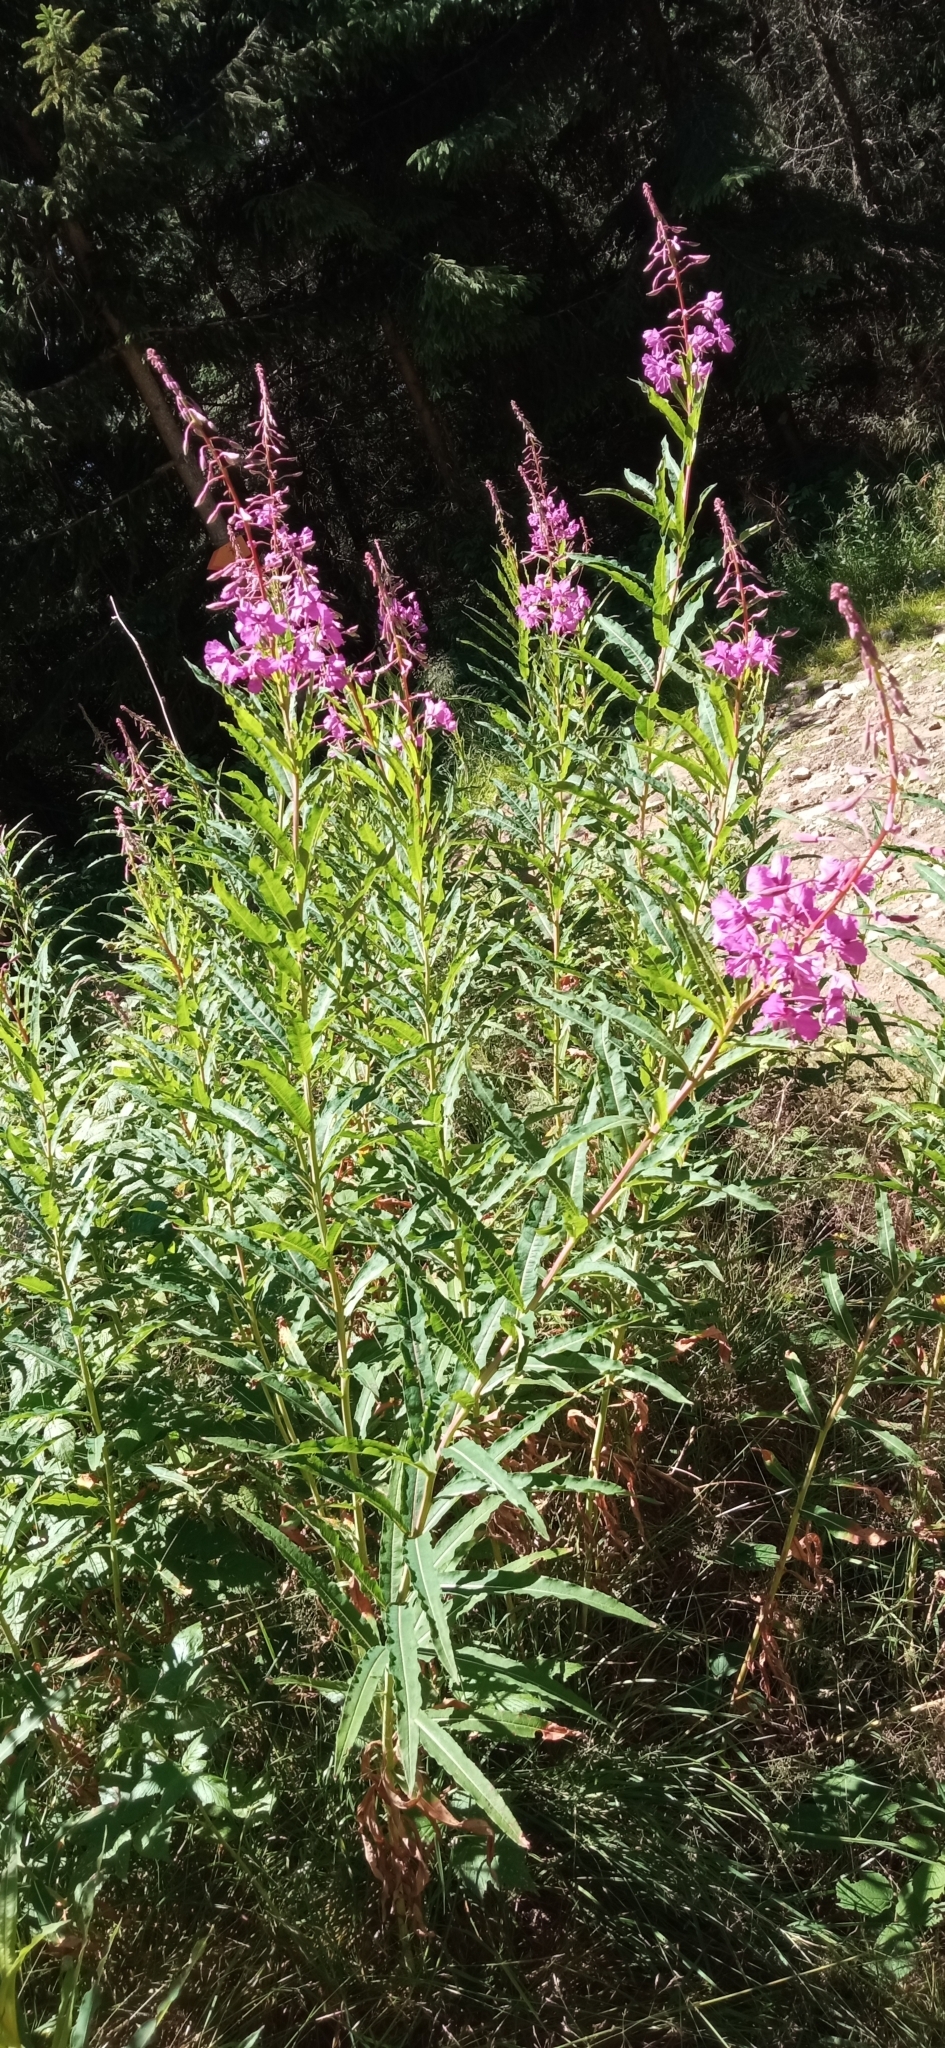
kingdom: Plantae
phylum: Tracheophyta
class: Magnoliopsida
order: Myrtales
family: Onagraceae
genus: Chamaenerion
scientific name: Chamaenerion angustifolium
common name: Fireweed
